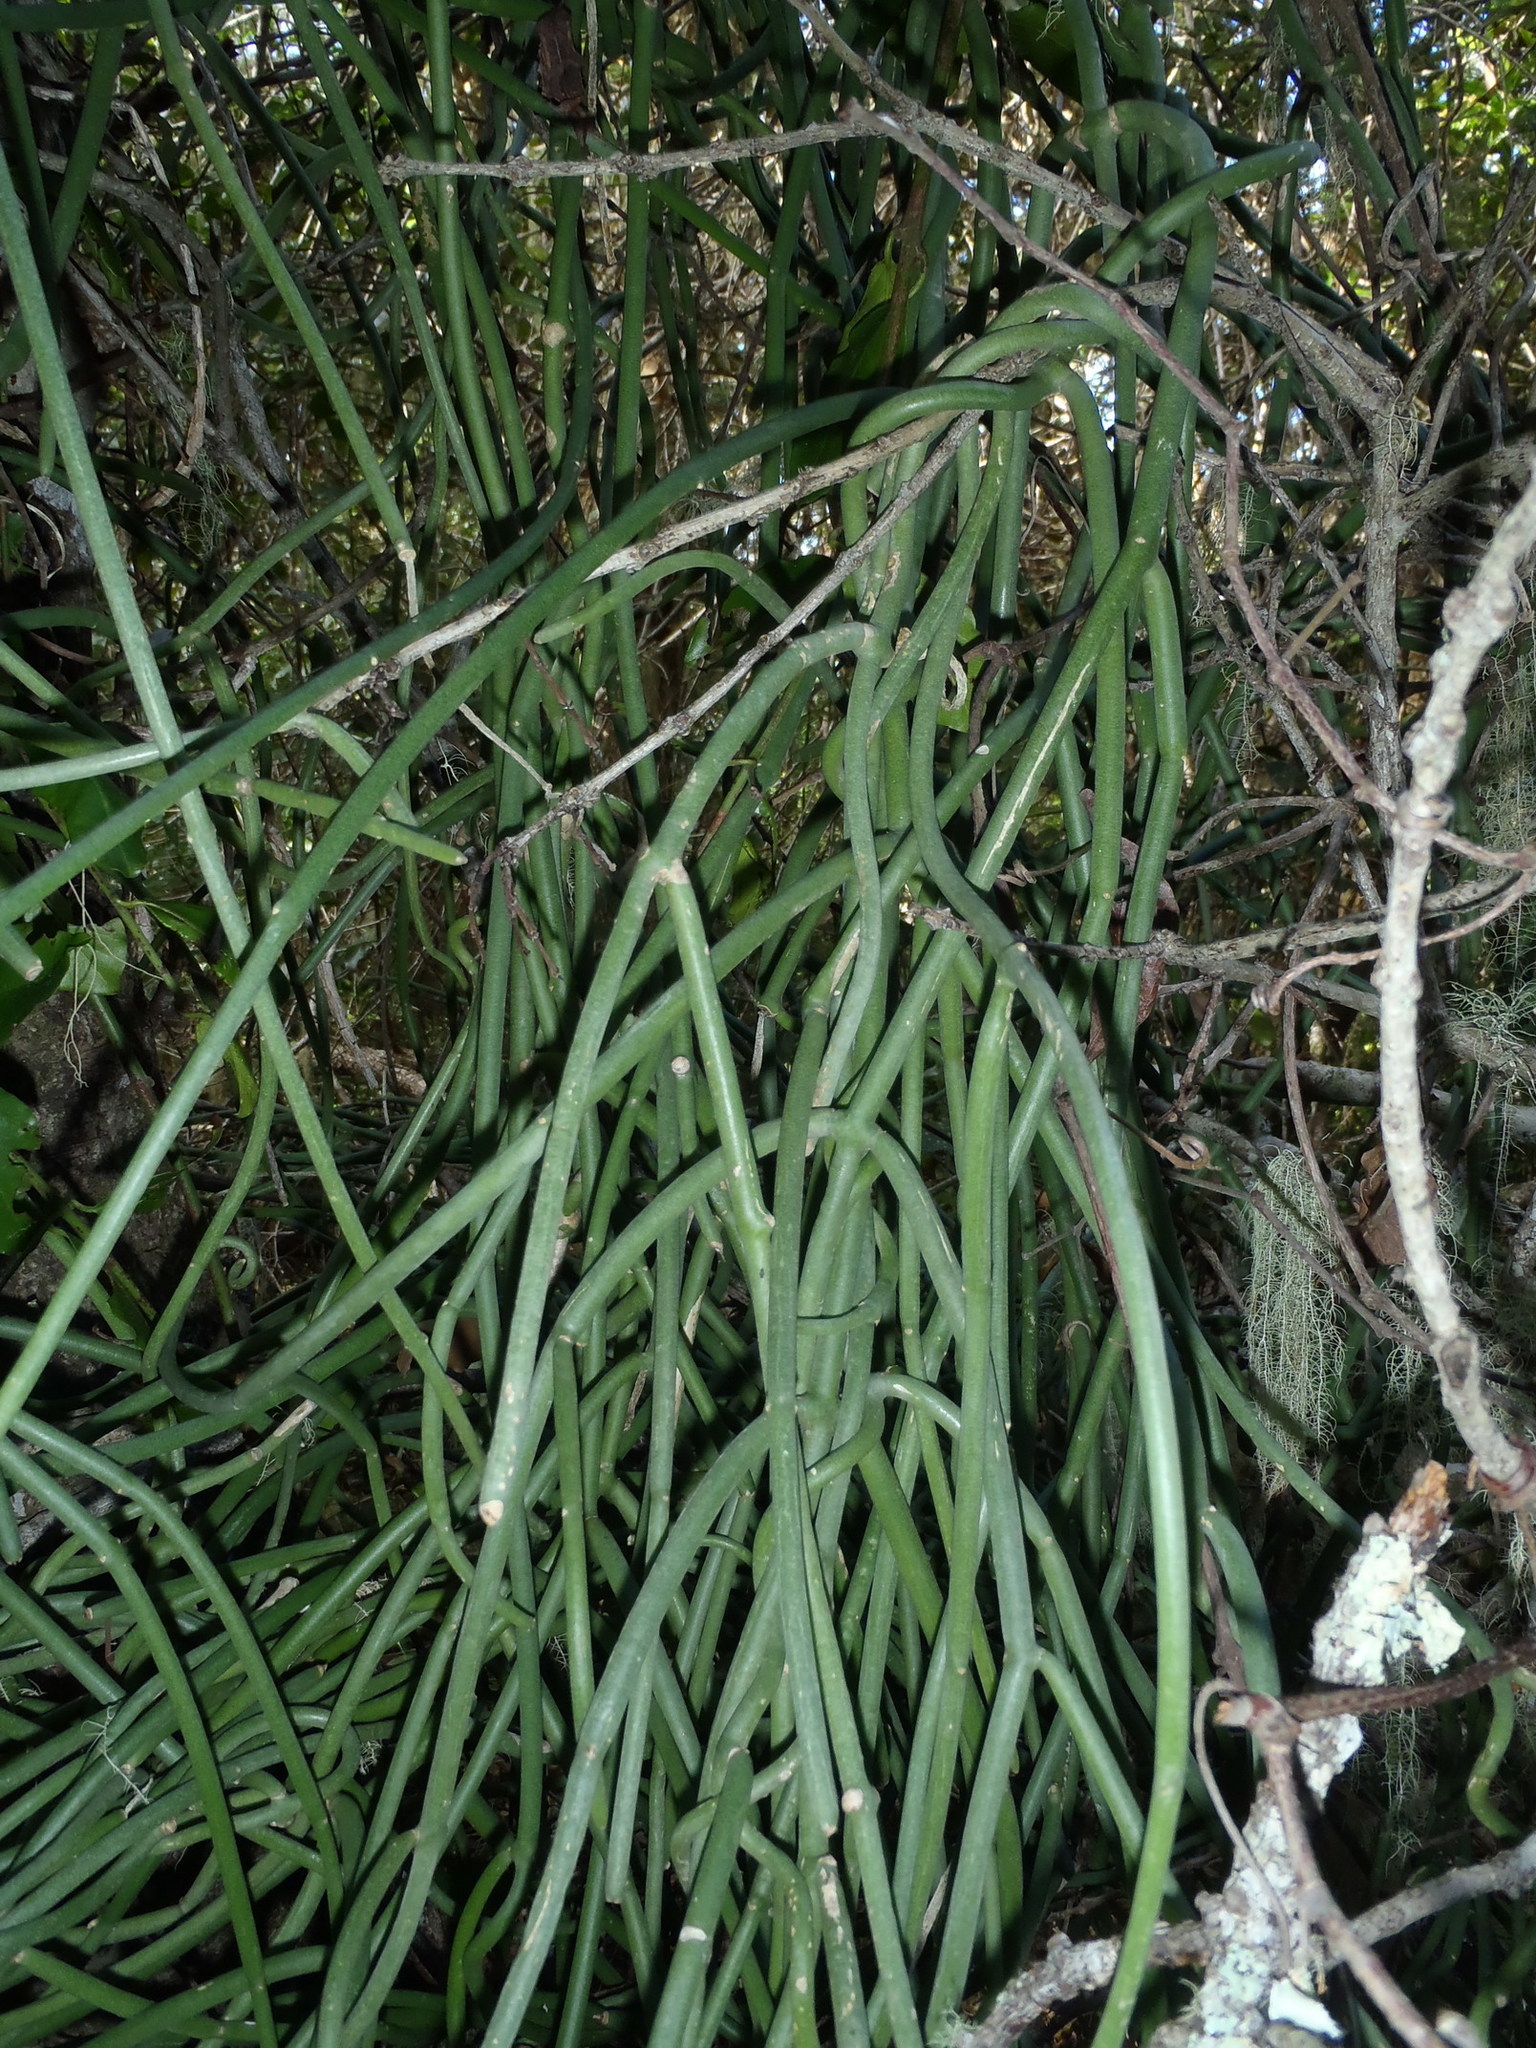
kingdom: Plantae
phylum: Tracheophyta
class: Magnoliopsida
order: Gentianales
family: Apocynaceae
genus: Cynanchum
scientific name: Cynanchum viminale
